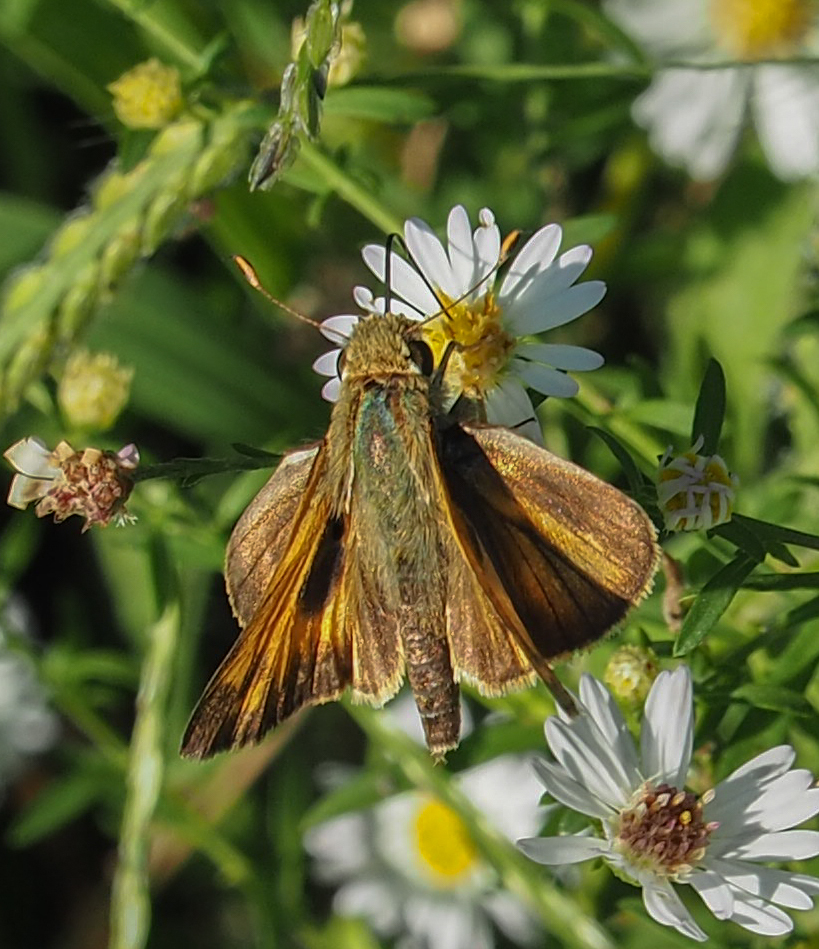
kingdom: Animalia
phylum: Arthropoda
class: Insecta
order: Lepidoptera
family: Hesperiidae
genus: Atalopedes
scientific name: Atalopedes
